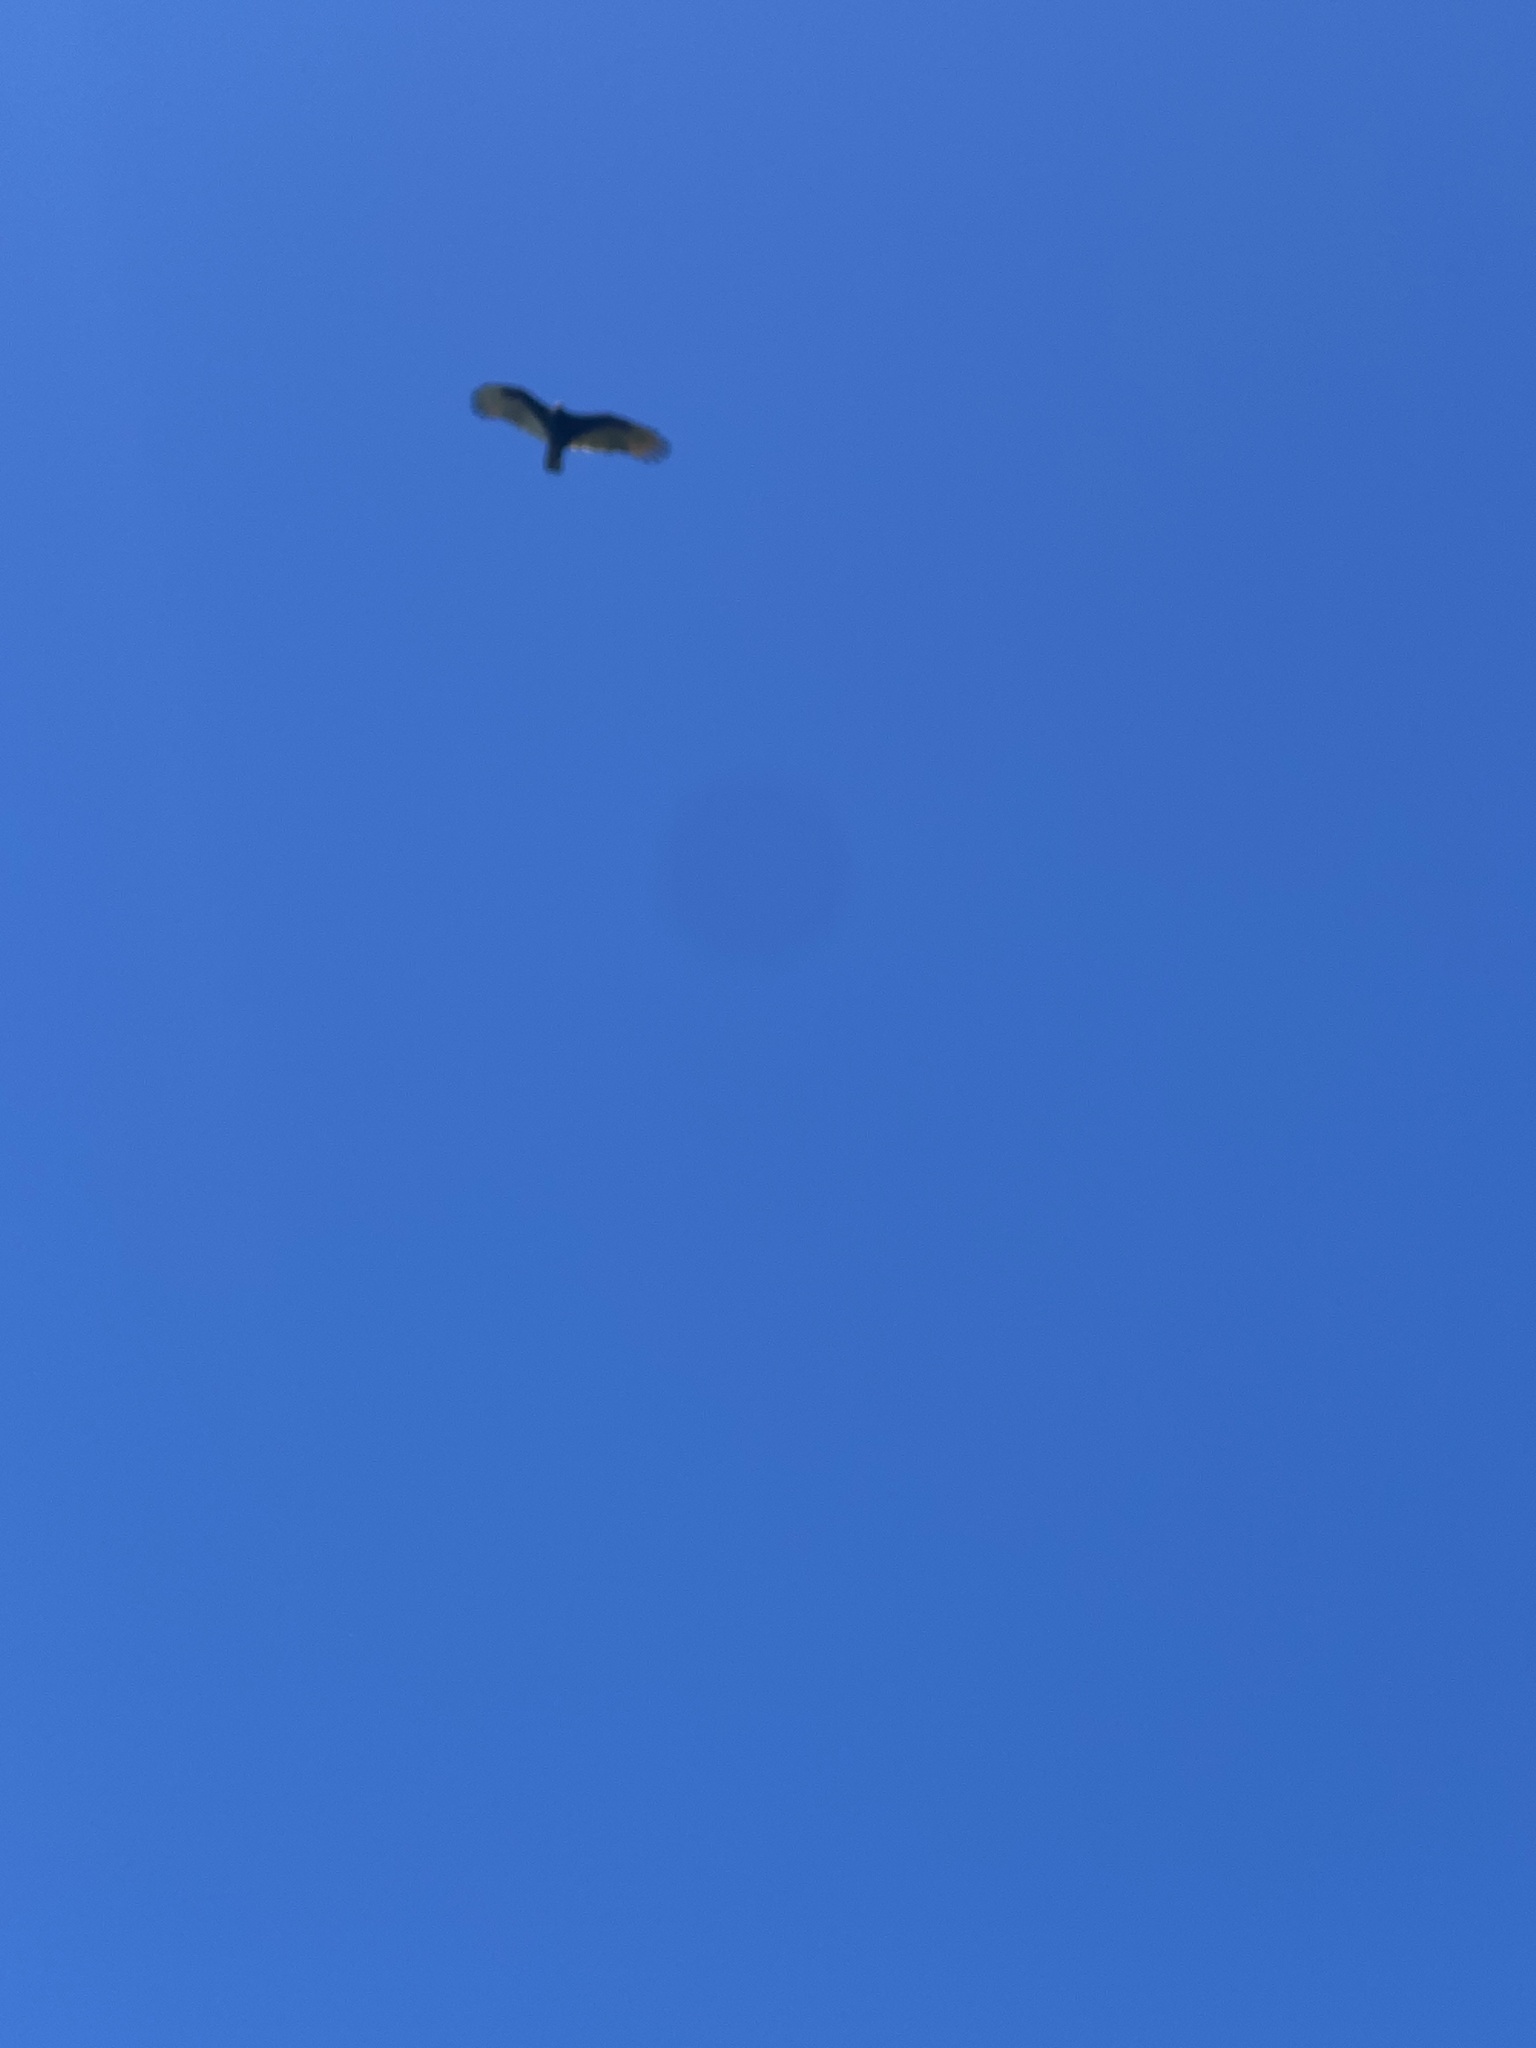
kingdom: Animalia
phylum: Chordata
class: Aves
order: Accipitriformes
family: Cathartidae
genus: Cathartes
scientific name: Cathartes aura
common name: Turkey vulture
